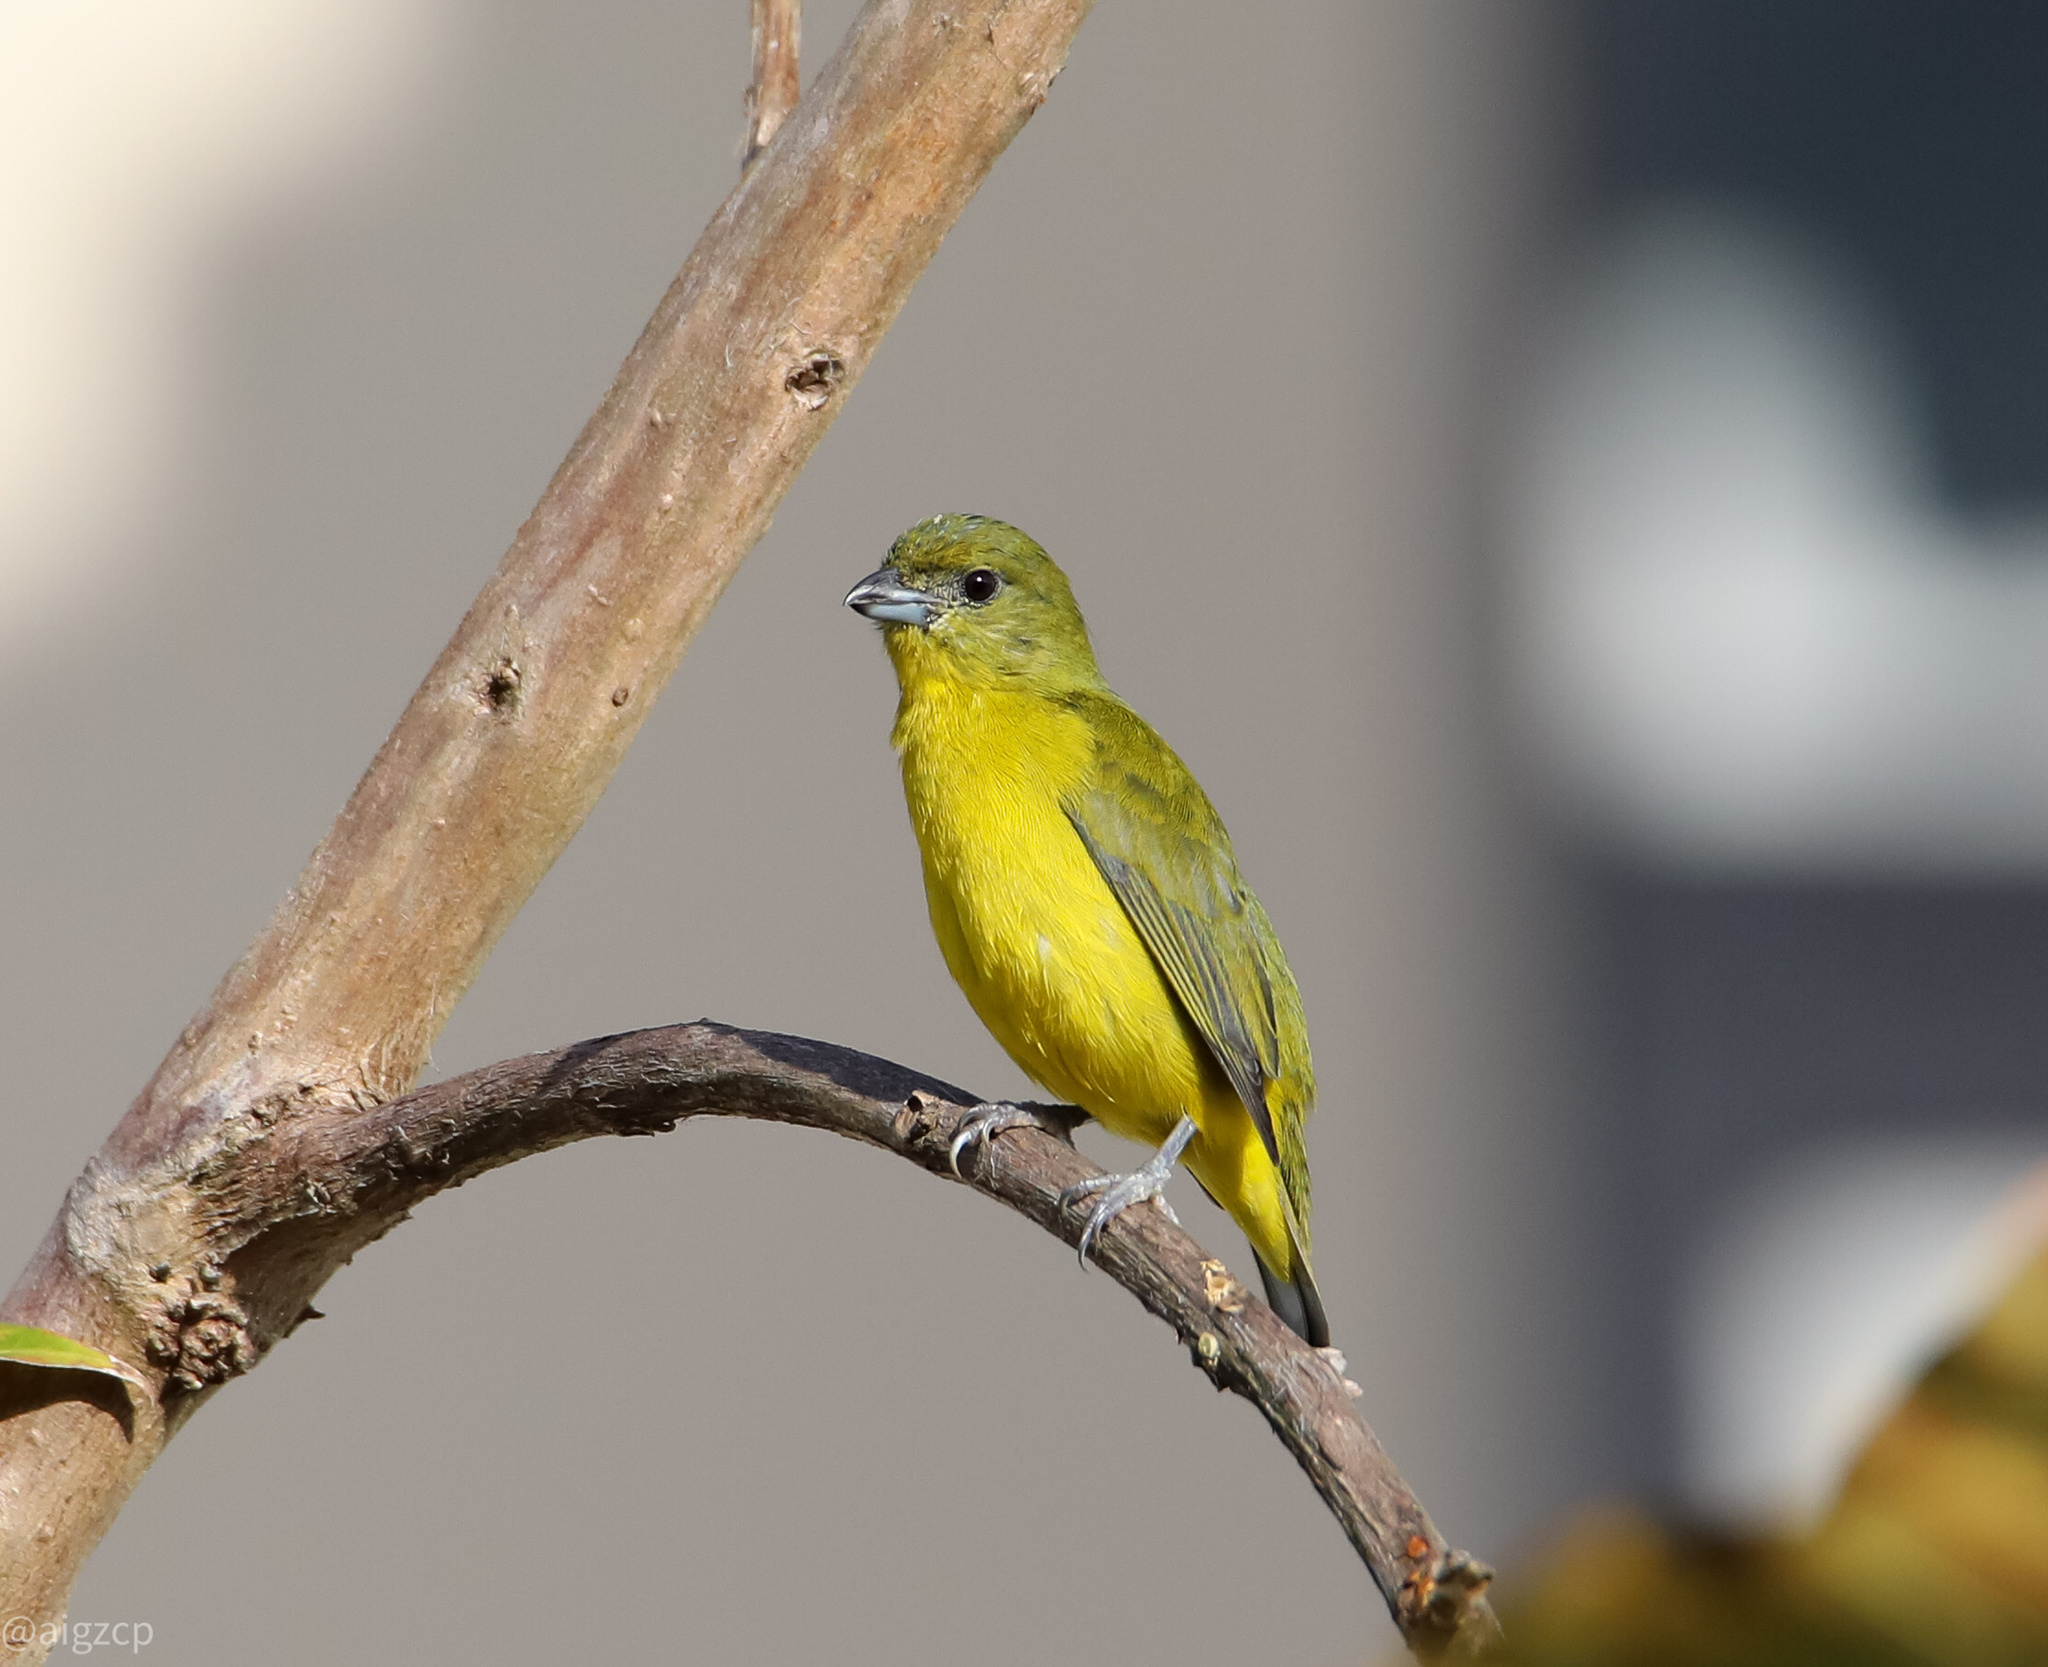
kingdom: Animalia
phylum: Chordata
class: Aves
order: Passeriformes
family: Fringillidae
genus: Euphonia
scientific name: Euphonia laniirostris
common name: Thick-billed euphonia
